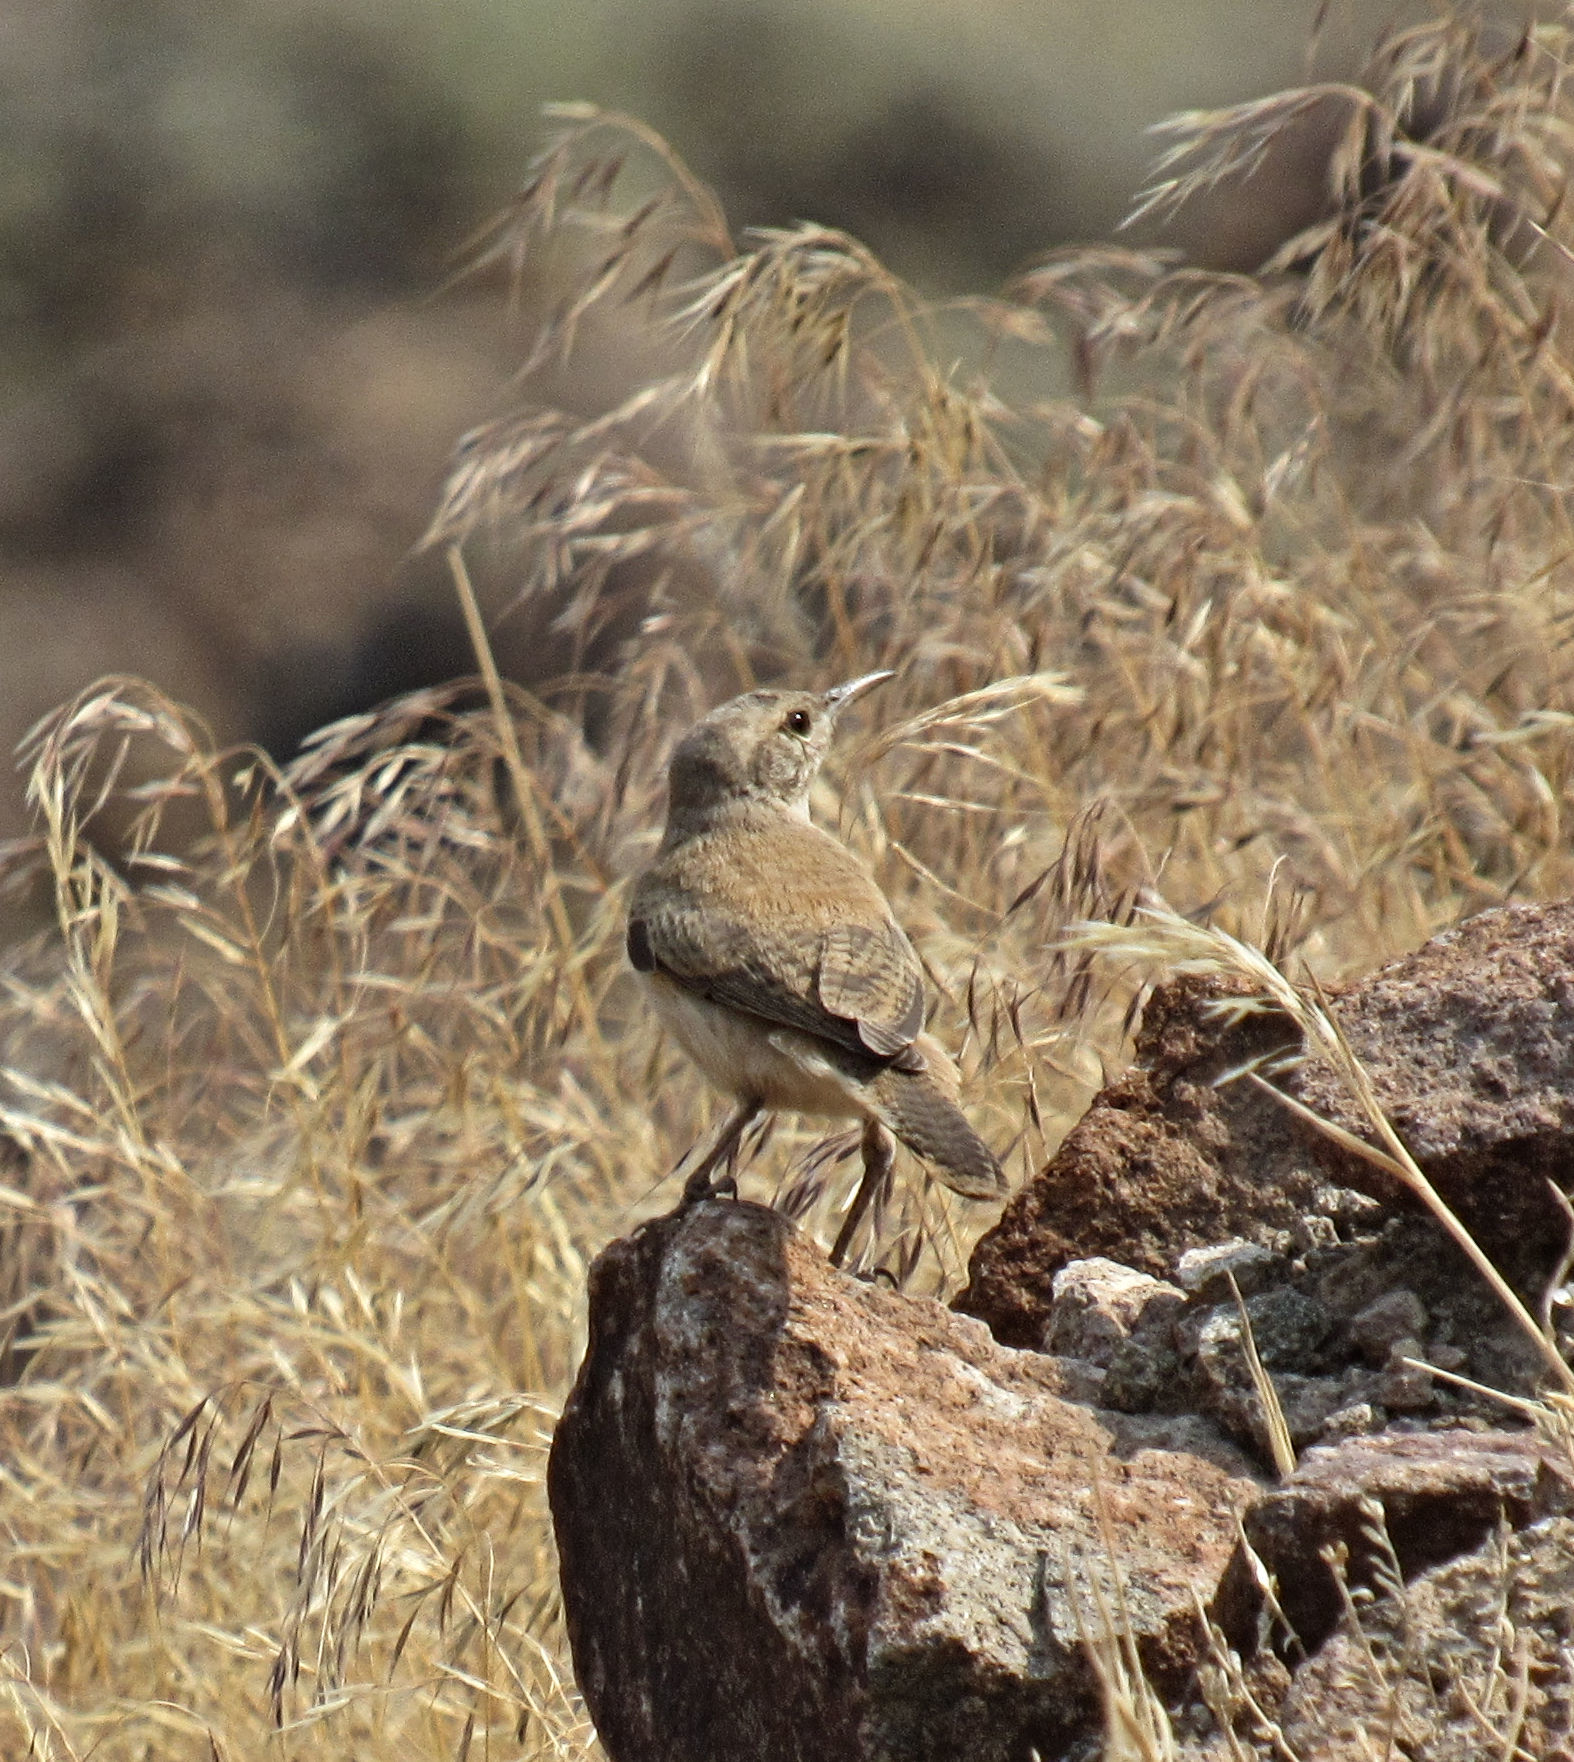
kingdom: Animalia
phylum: Chordata
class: Aves
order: Passeriformes
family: Troglodytidae
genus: Salpinctes
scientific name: Salpinctes obsoletus
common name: Rock wren
